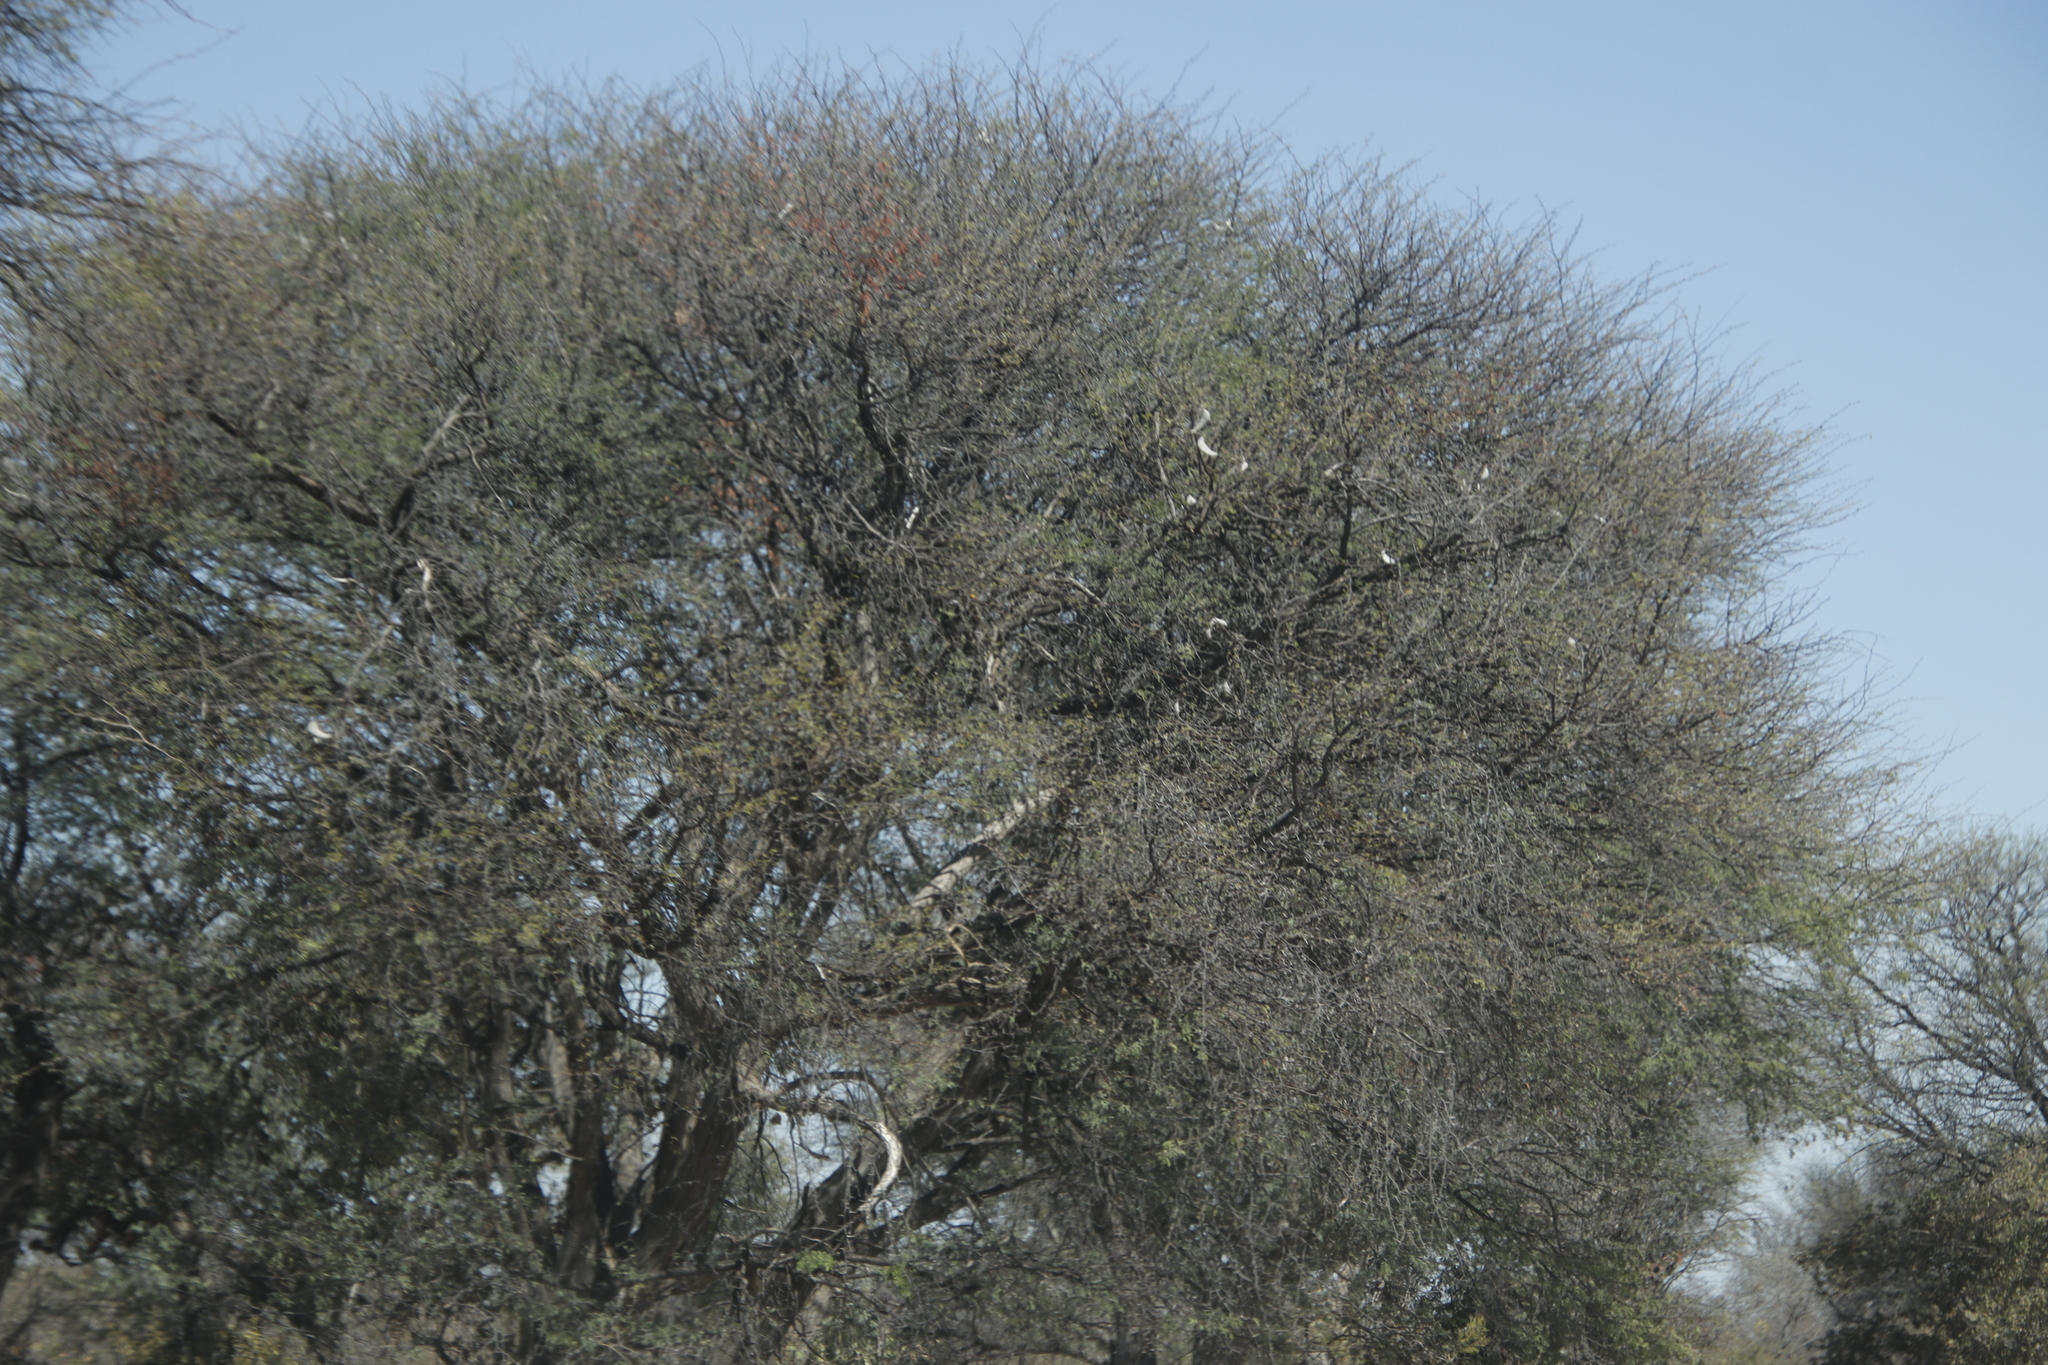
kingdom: Plantae
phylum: Tracheophyta
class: Magnoliopsida
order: Fabales
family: Fabaceae
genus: Vachellia
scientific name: Vachellia erioloba
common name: Camel thorn
